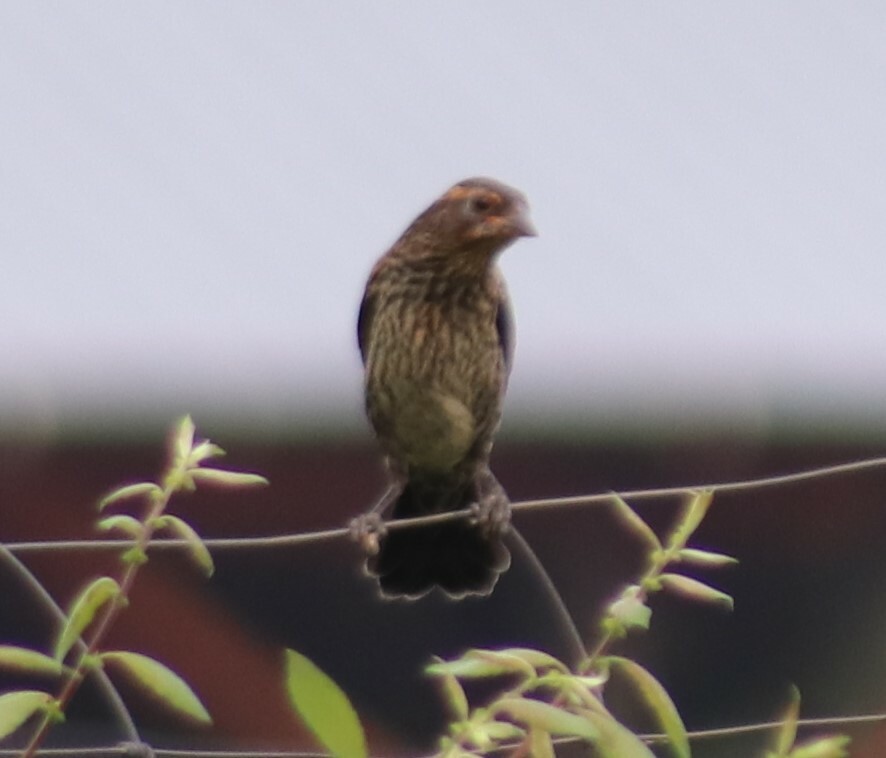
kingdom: Animalia
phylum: Chordata
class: Aves
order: Passeriformes
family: Icteridae
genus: Agelaius
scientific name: Agelaius phoeniceus
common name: Red-winged blackbird
